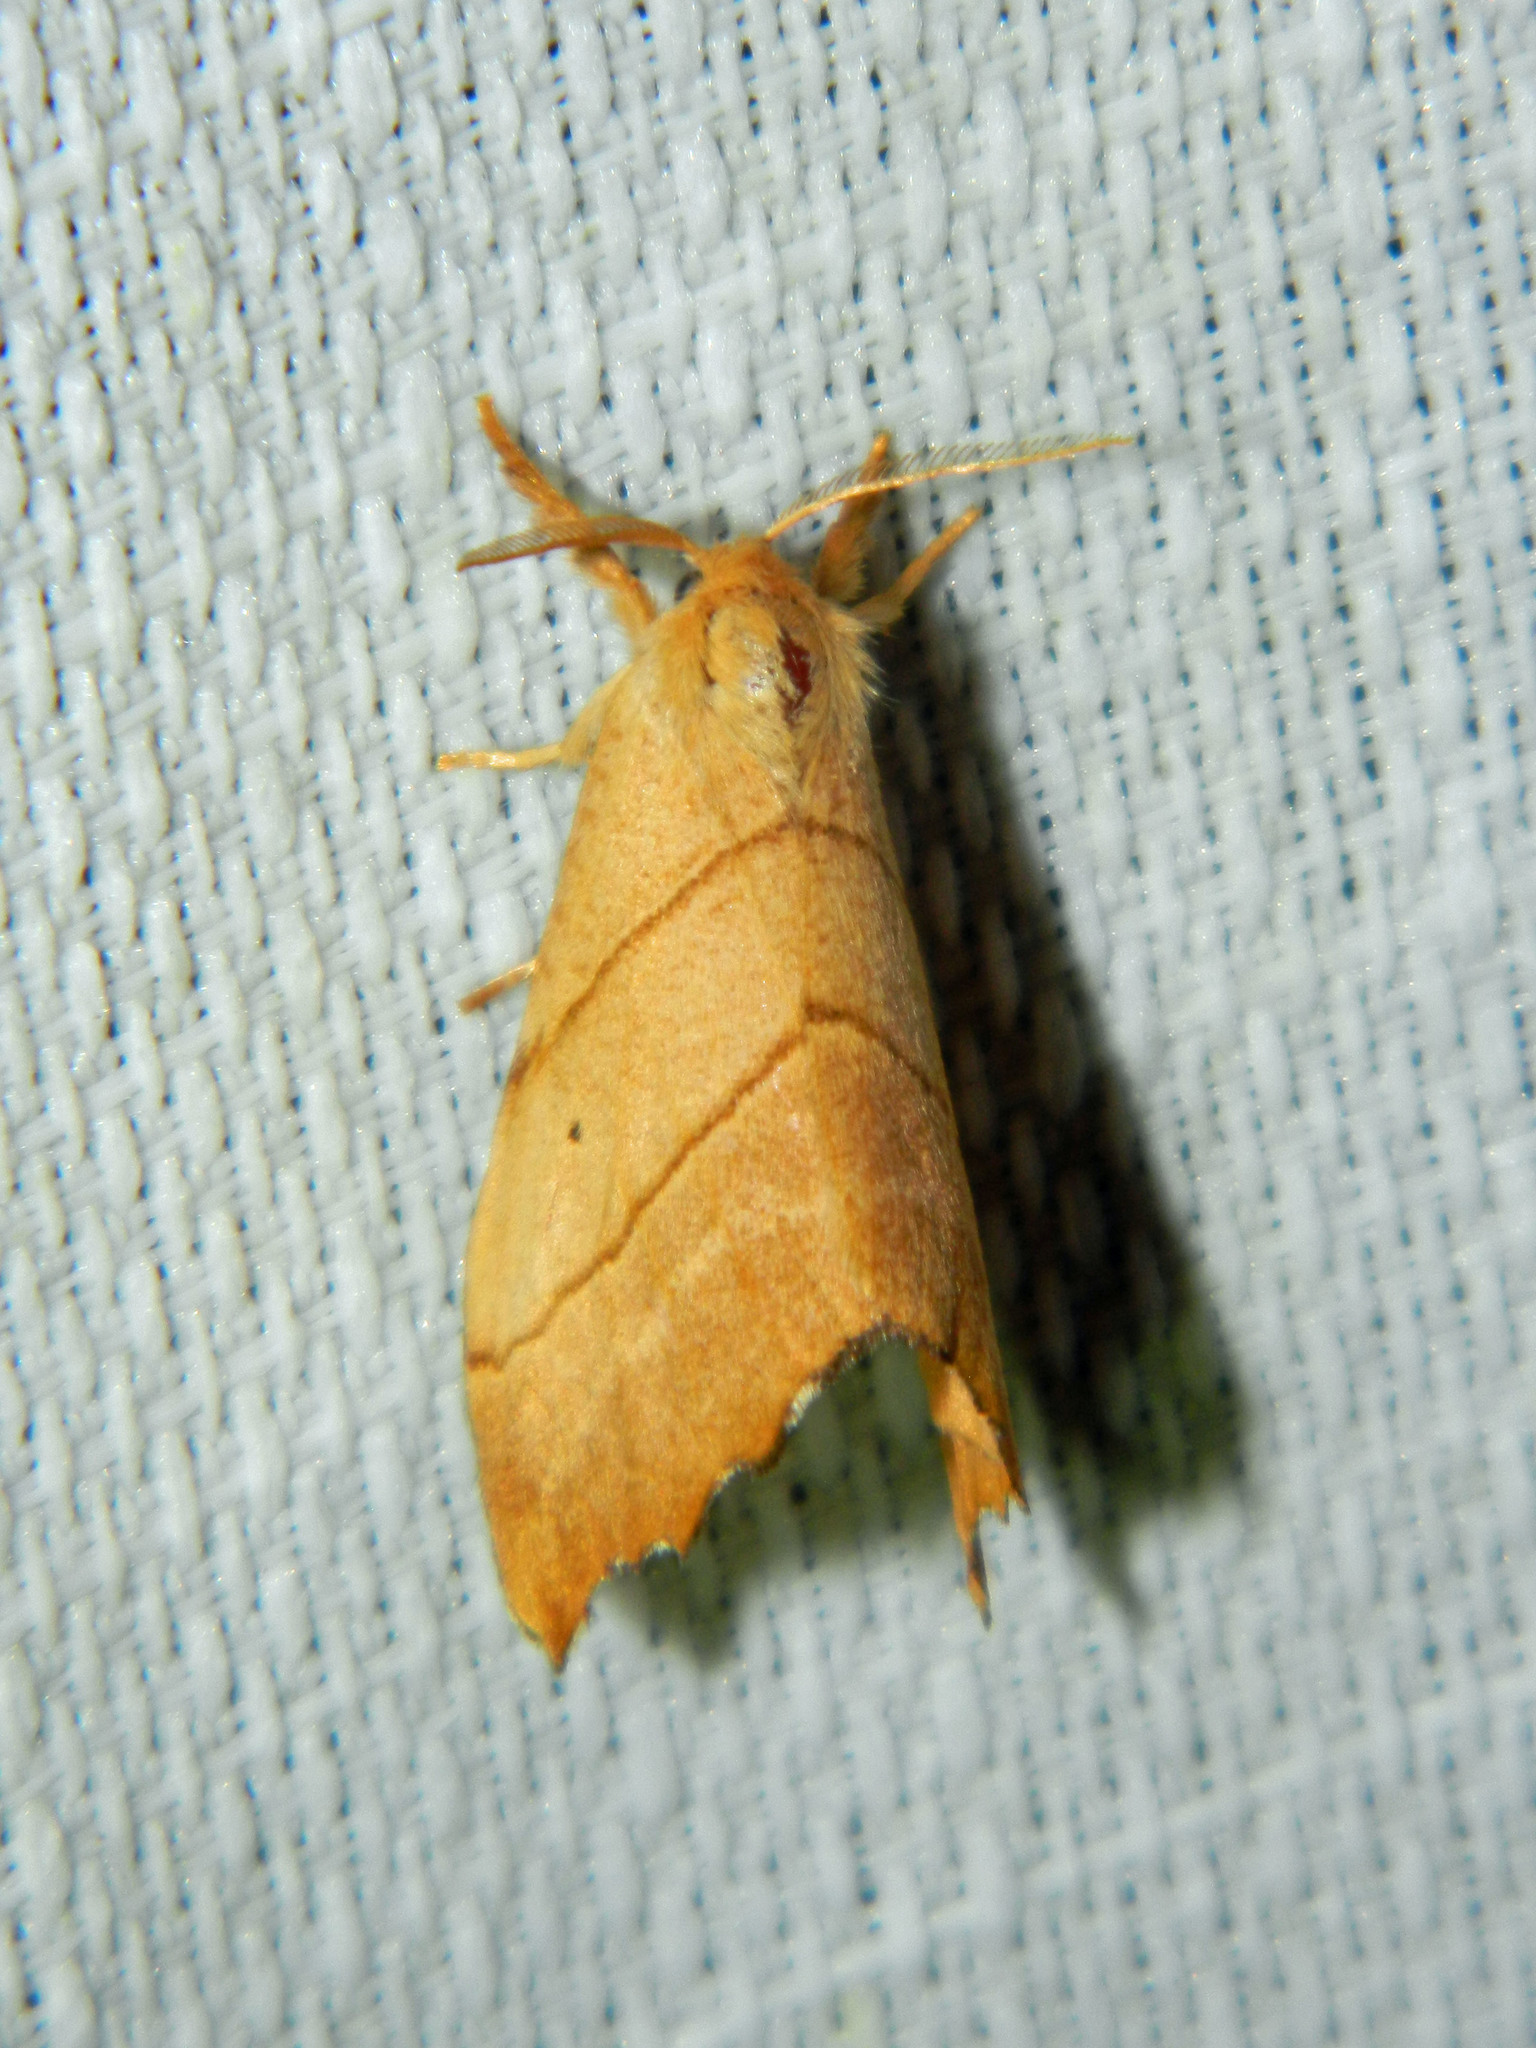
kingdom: Animalia
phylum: Arthropoda
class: Insecta
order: Lepidoptera
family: Drepanidae
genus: Falcaria
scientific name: Falcaria bilineata
